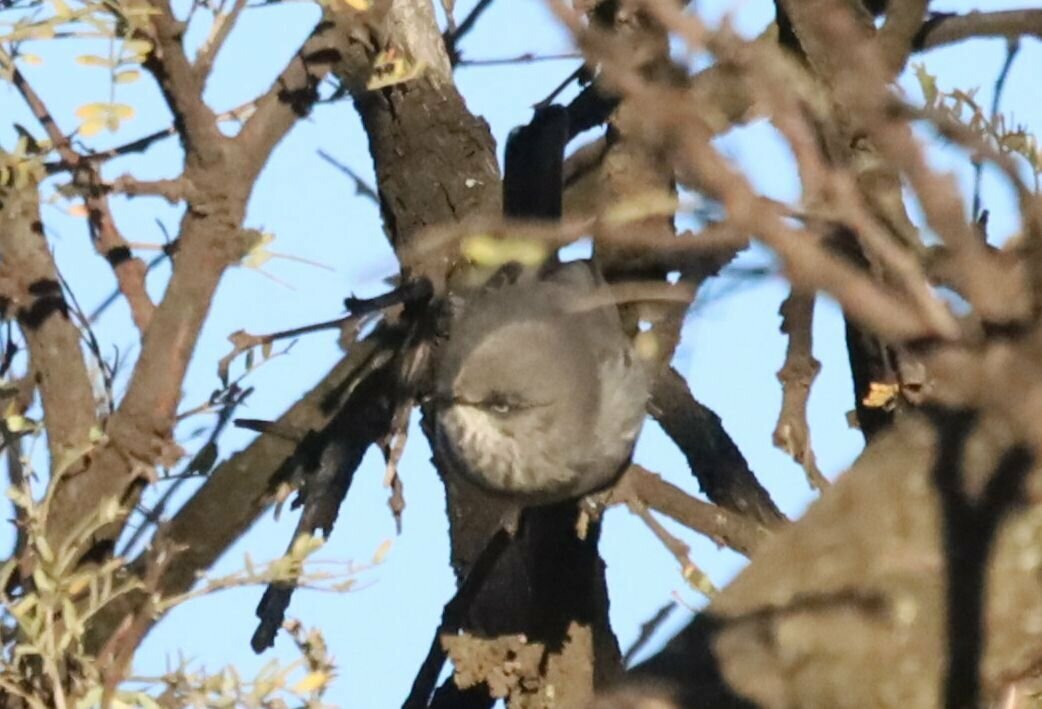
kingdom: Animalia
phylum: Chordata
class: Aves
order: Passeriformes
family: Sylviidae
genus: Curruca
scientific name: Curruca subcoerulea
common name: Chestnut-vented warbler
